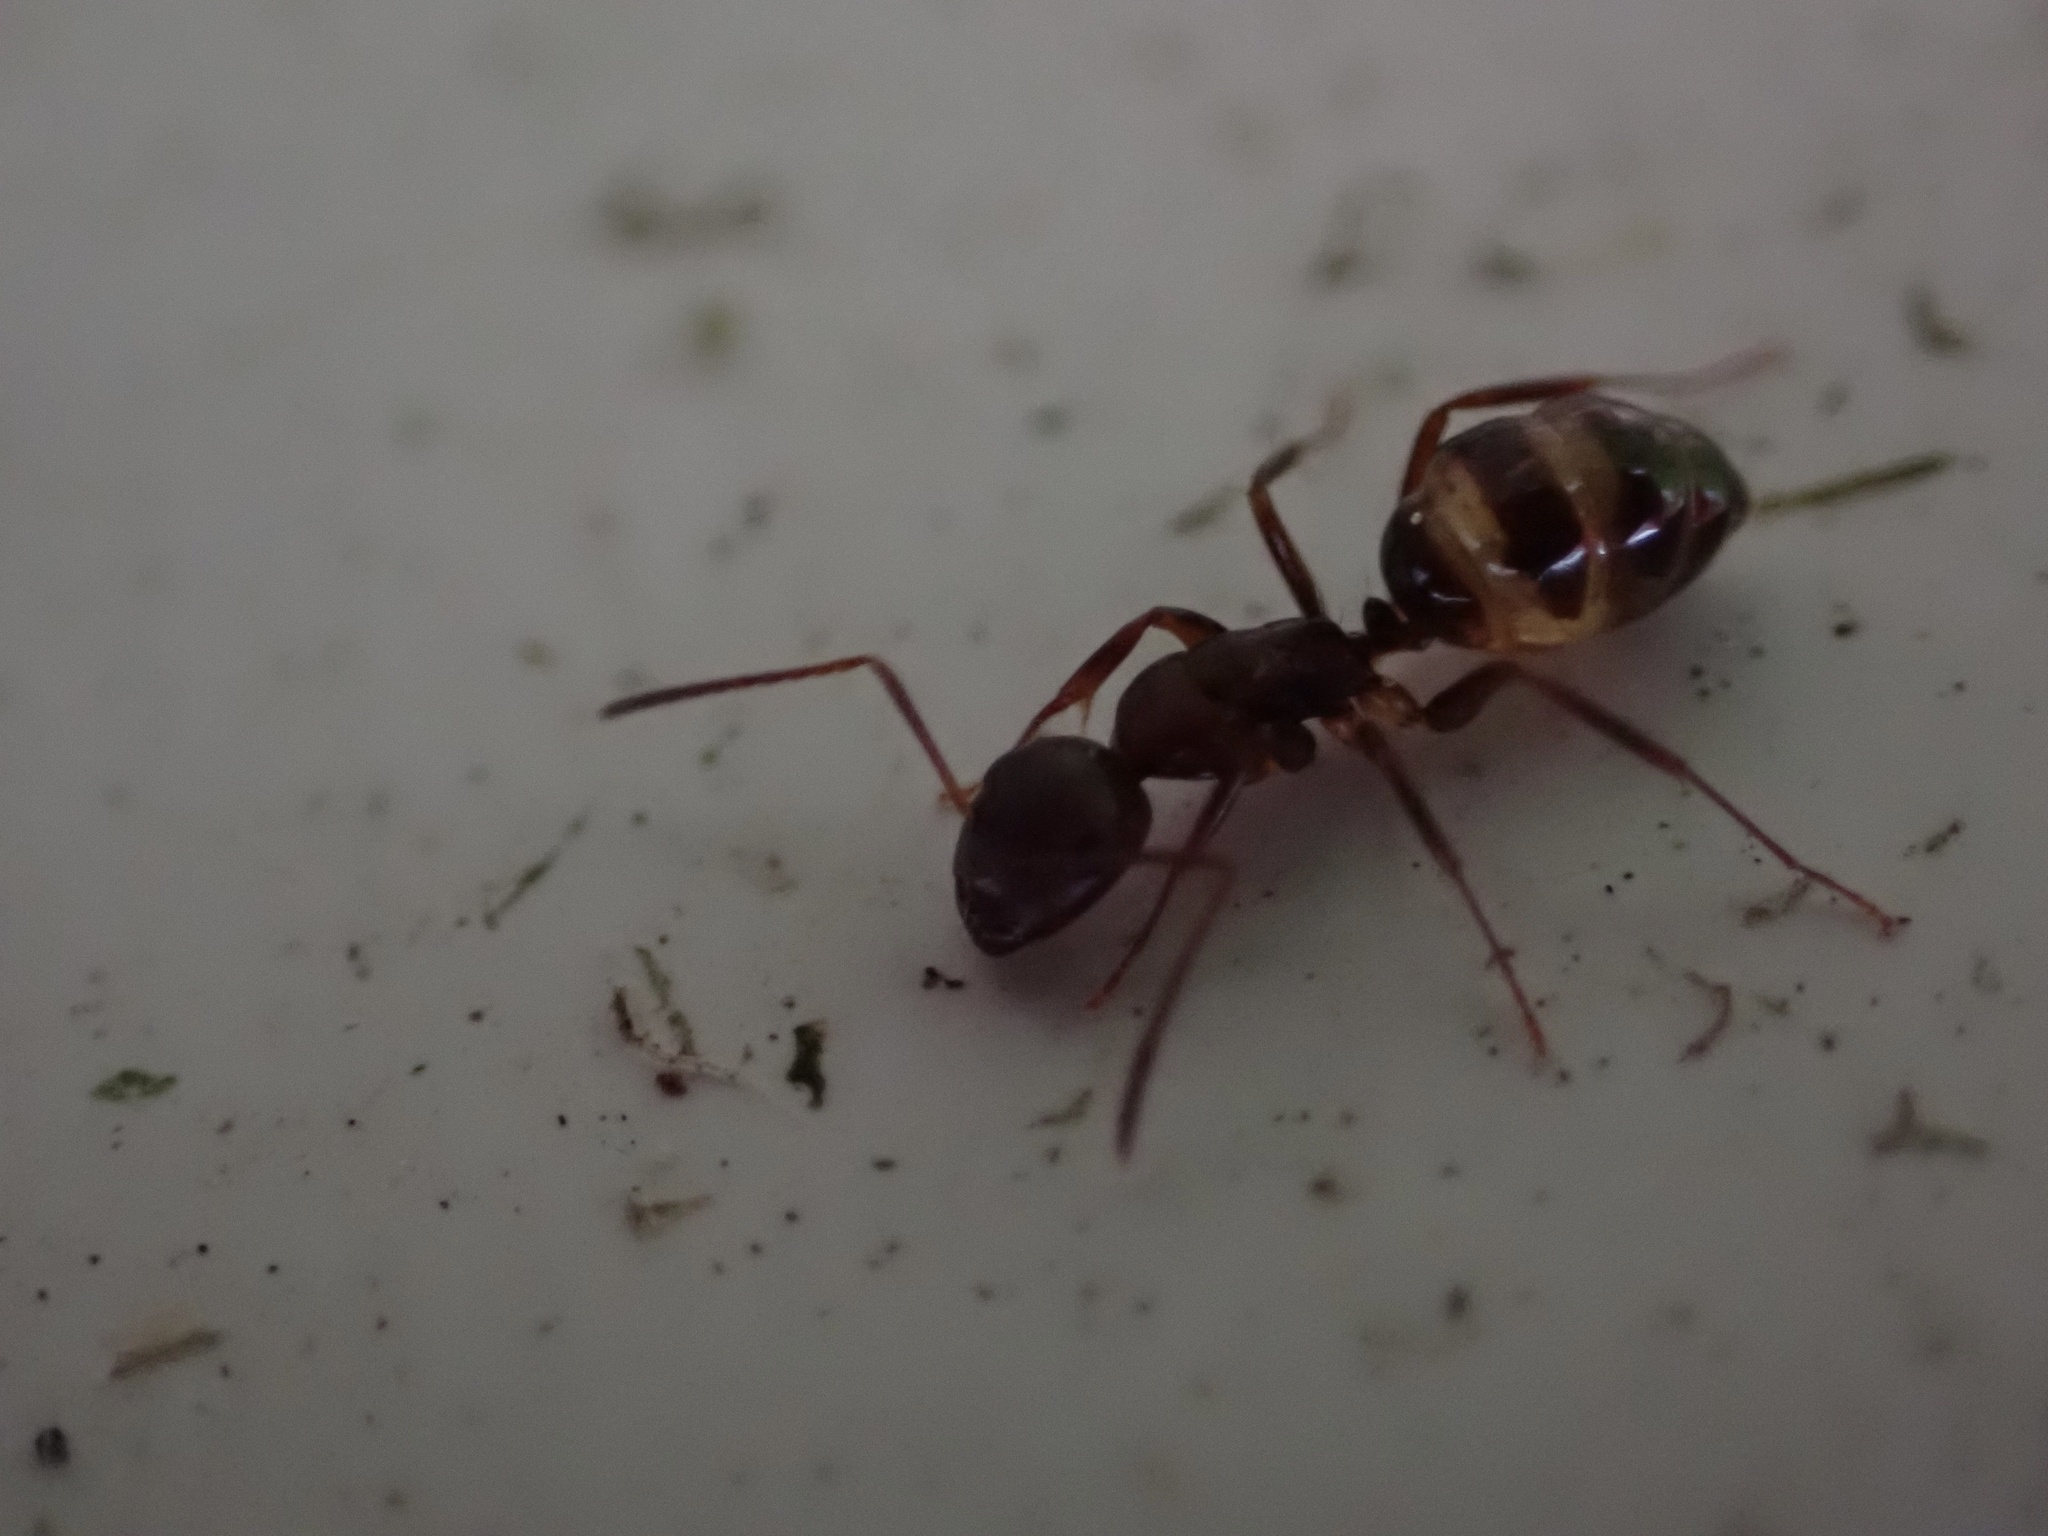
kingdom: Animalia
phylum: Arthropoda
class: Insecta
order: Hymenoptera
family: Formicidae
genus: Camponotus
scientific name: Camponotus subbarbatus
